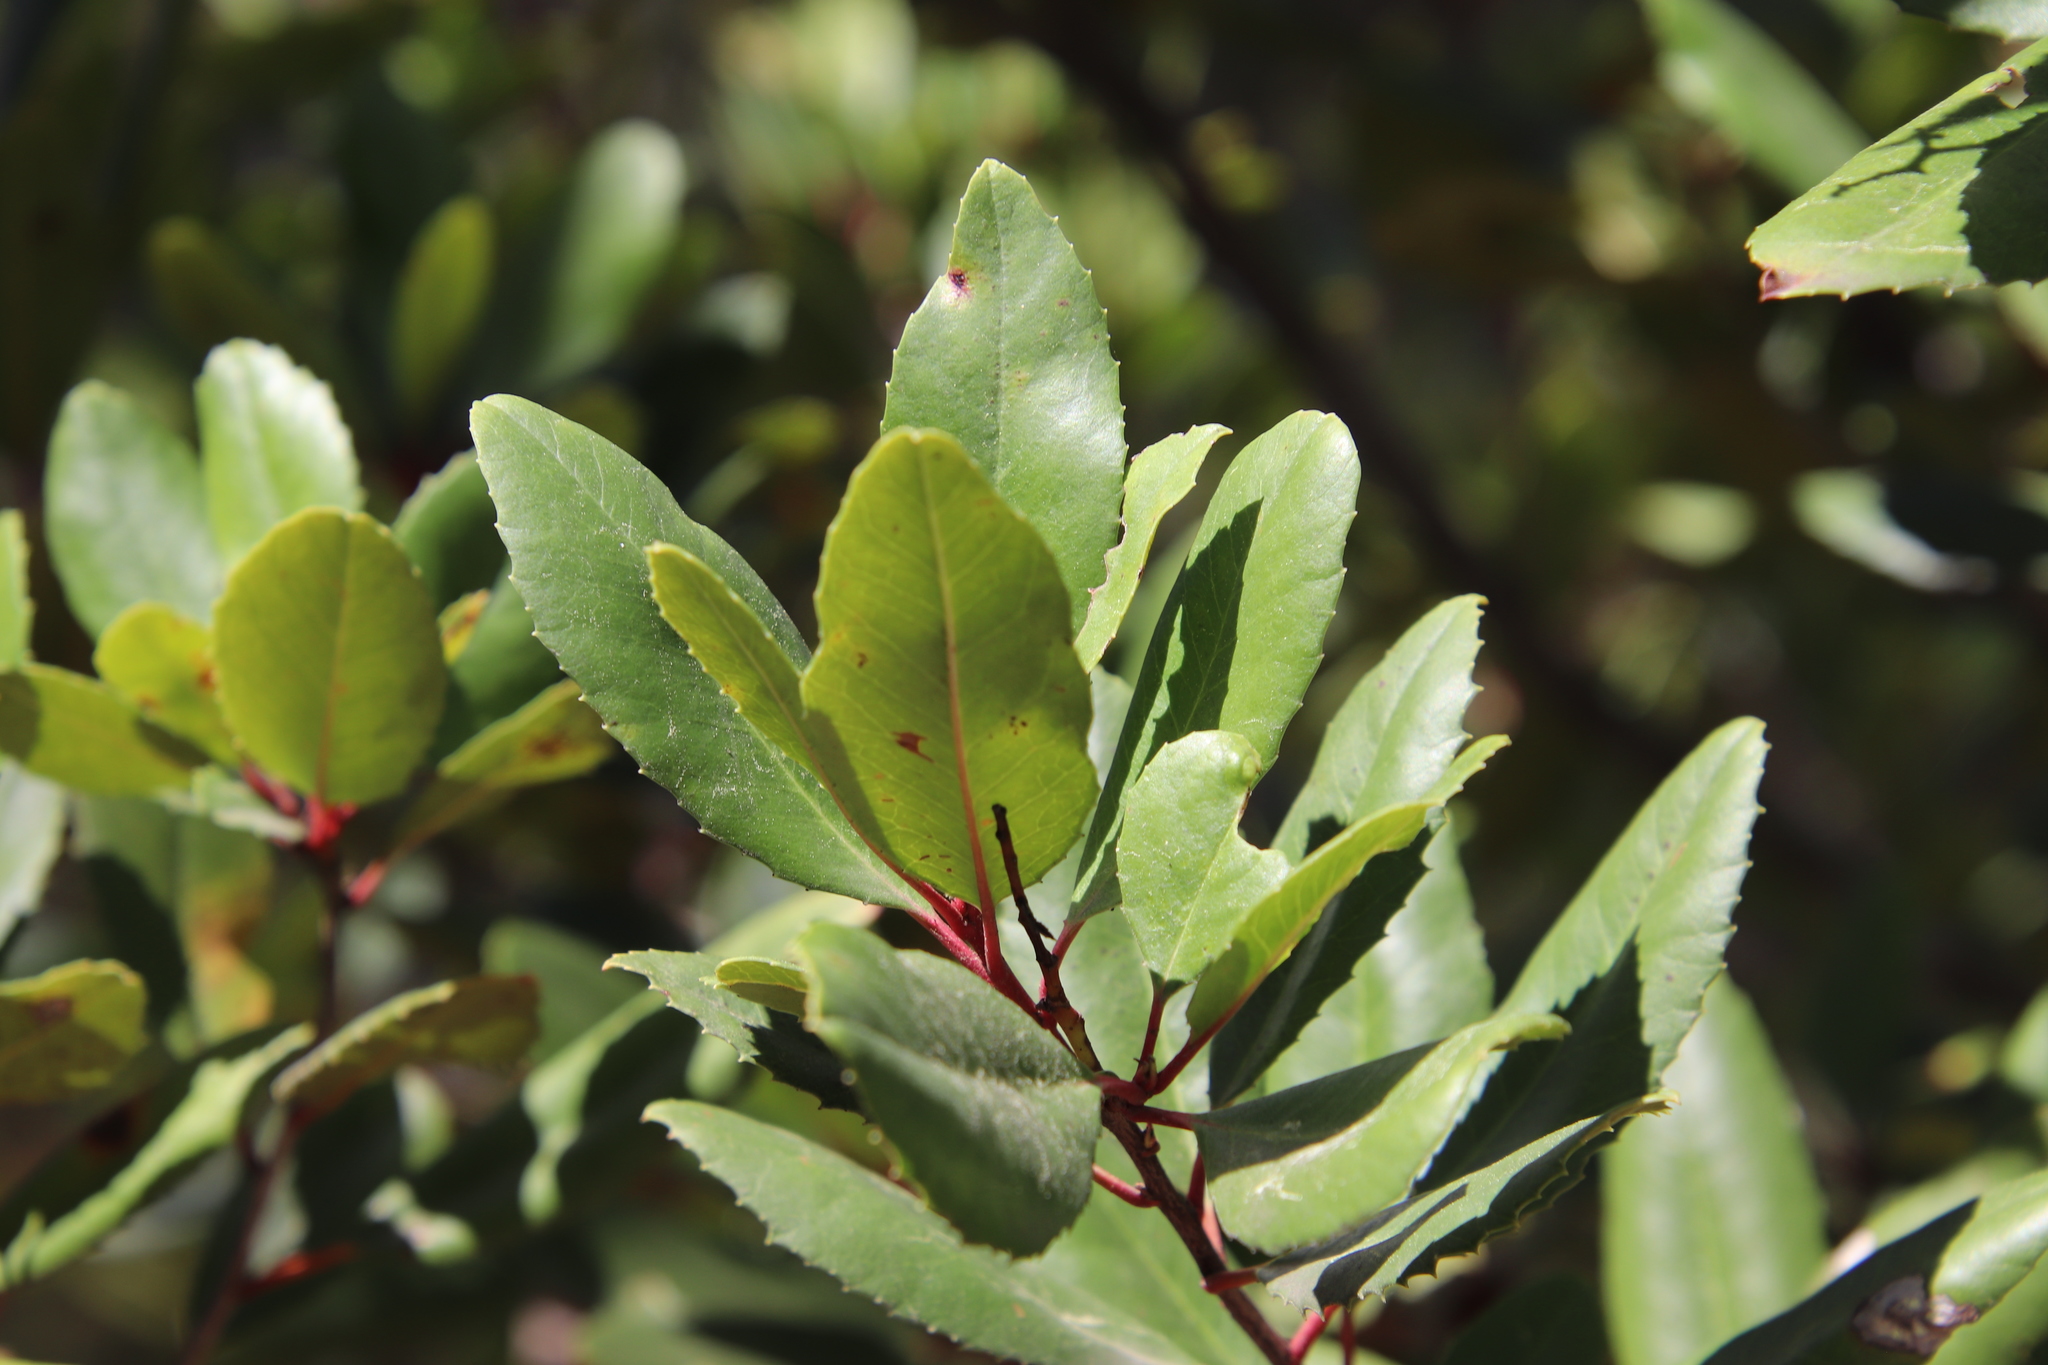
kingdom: Plantae
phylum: Tracheophyta
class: Magnoliopsida
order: Rosales
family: Rosaceae
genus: Heteromeles
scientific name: Heteromeles arbutifolia
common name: California-holly
